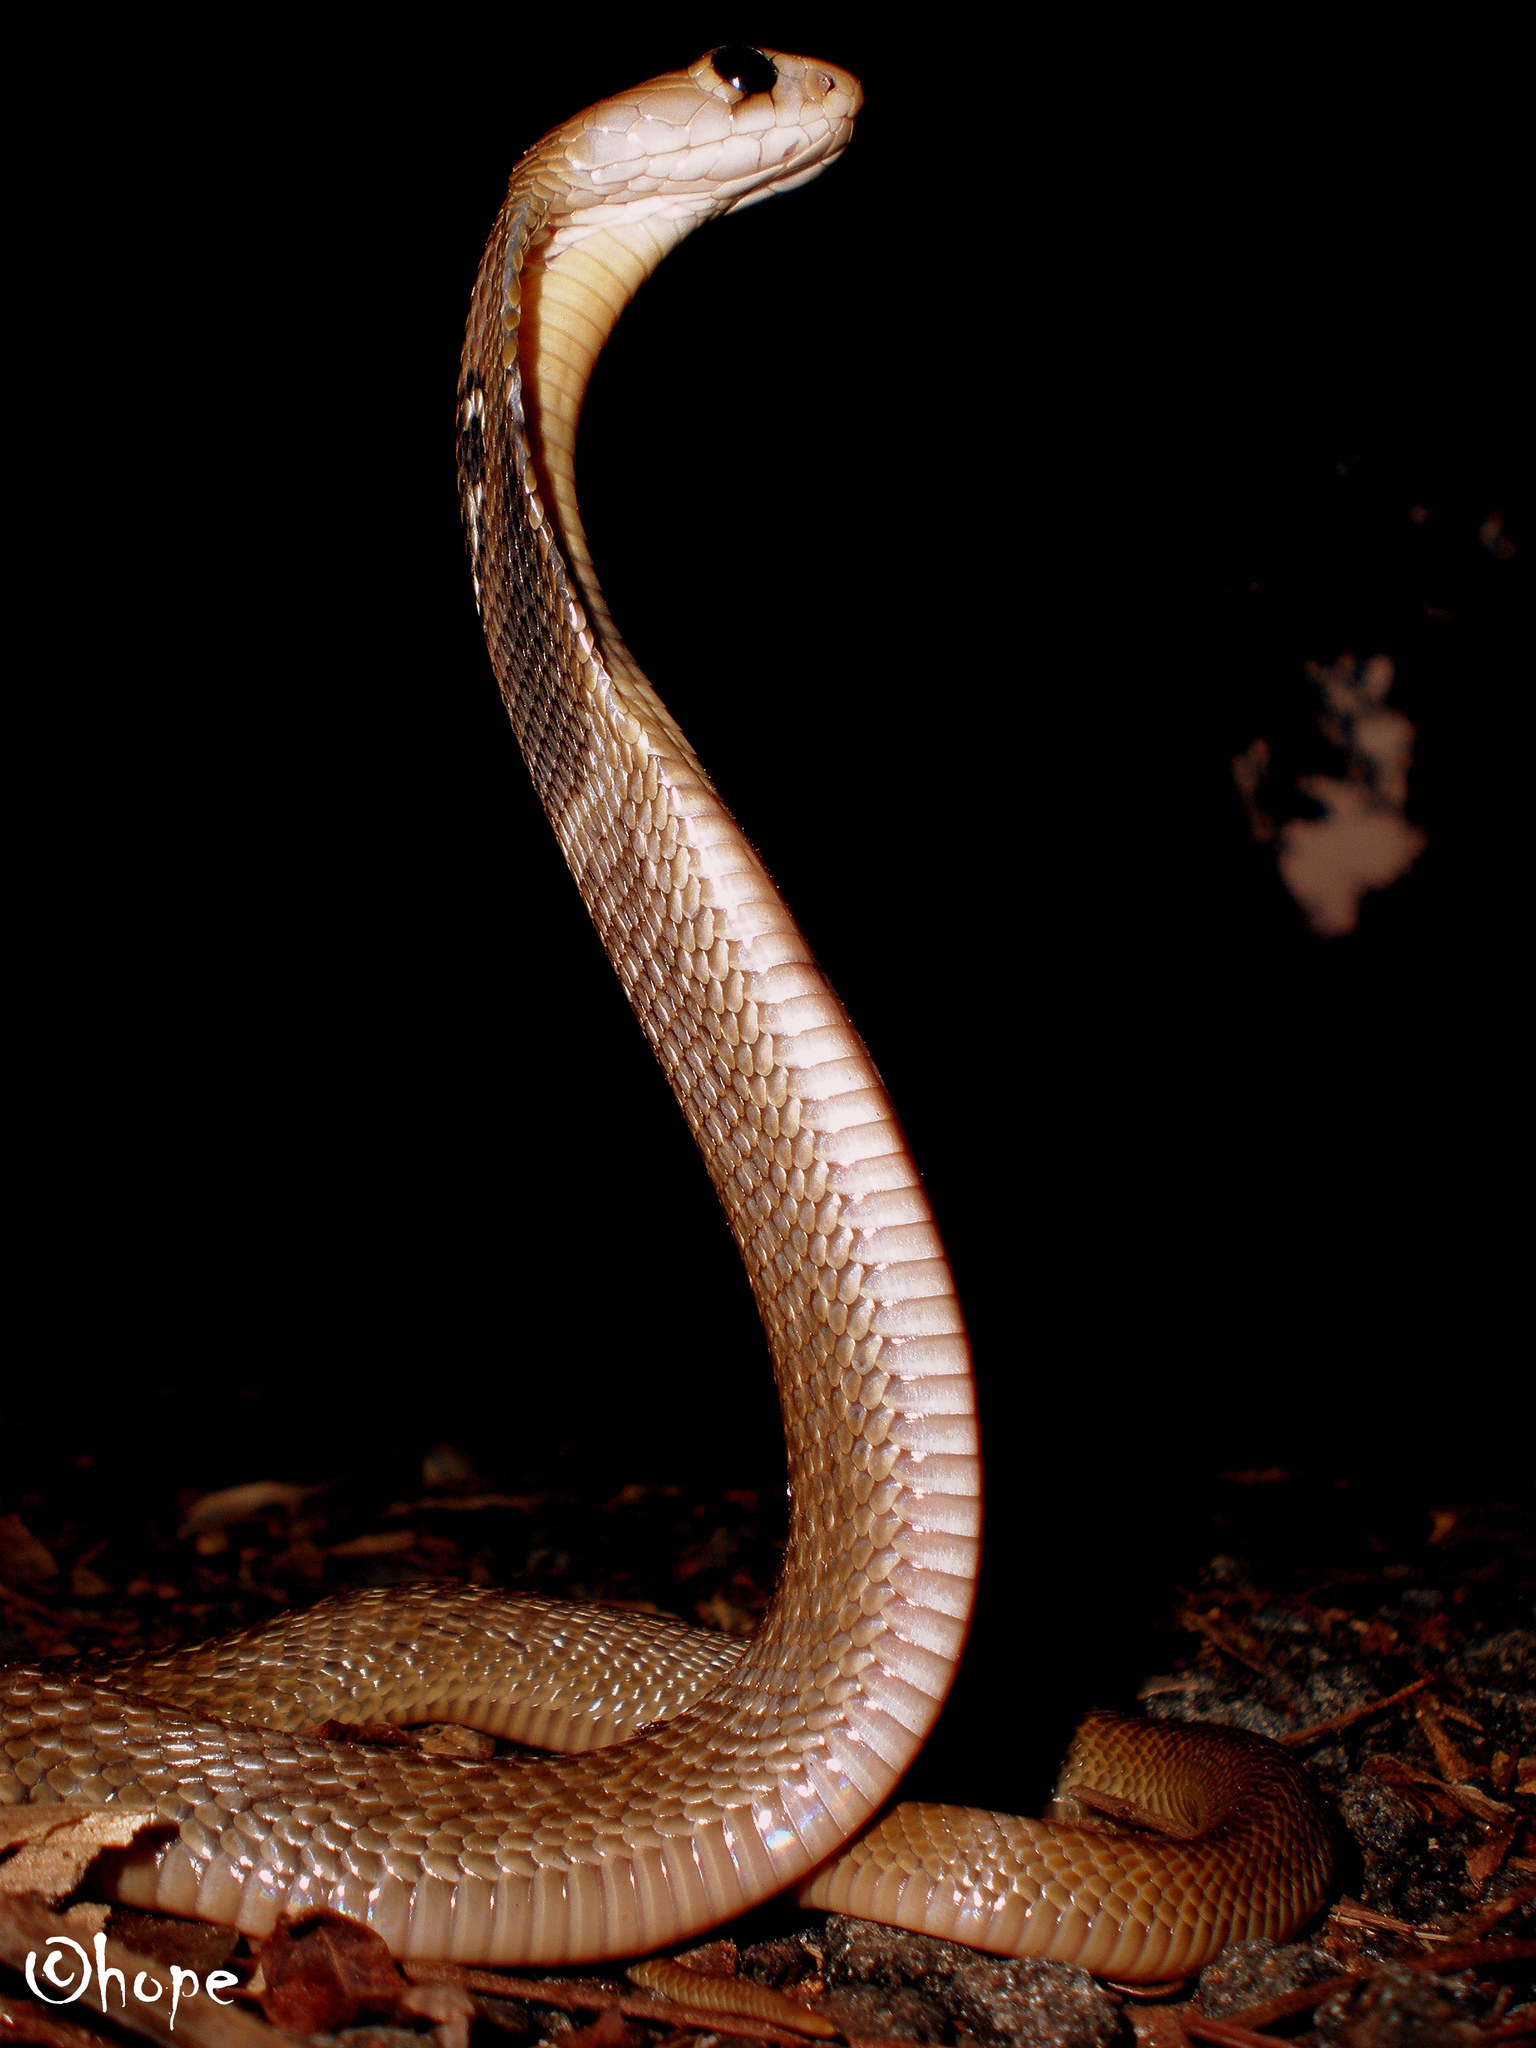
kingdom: Animalia
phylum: Chordata
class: Squamata
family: Elapidae
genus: Naja
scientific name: Naja naja
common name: Indian cobra
